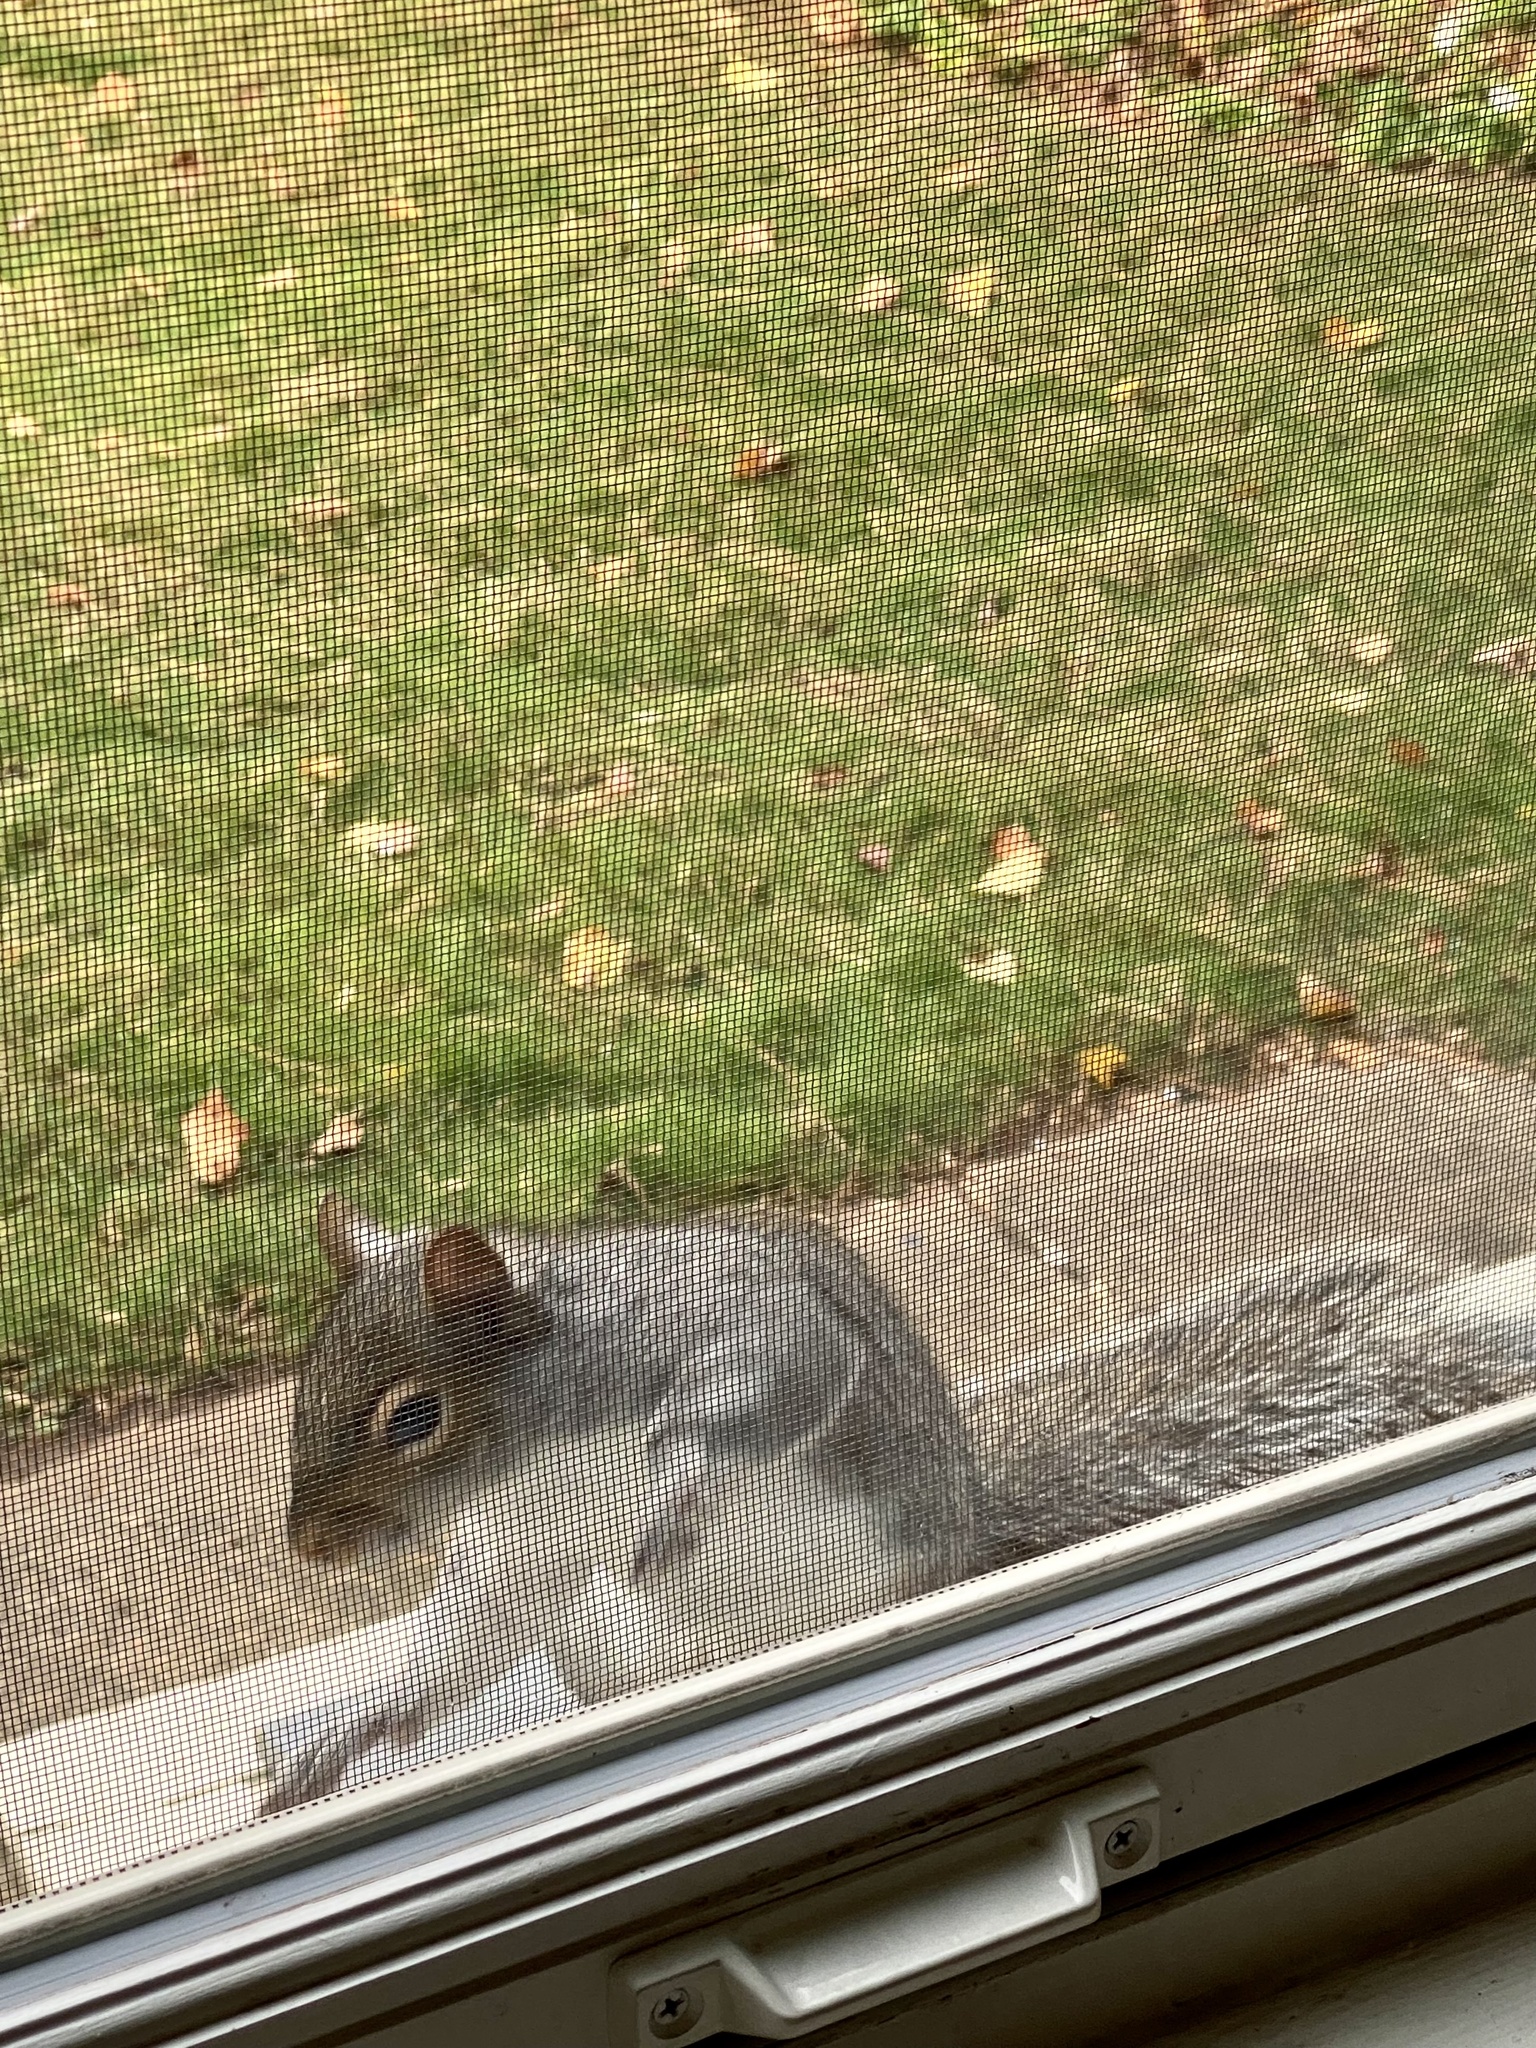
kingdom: Animalia
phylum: Chordata
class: Mammalia
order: Rodentia
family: Sciuridae
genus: Sciurus
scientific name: Sciurus carolinensis
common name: Eastern gray squirrel
